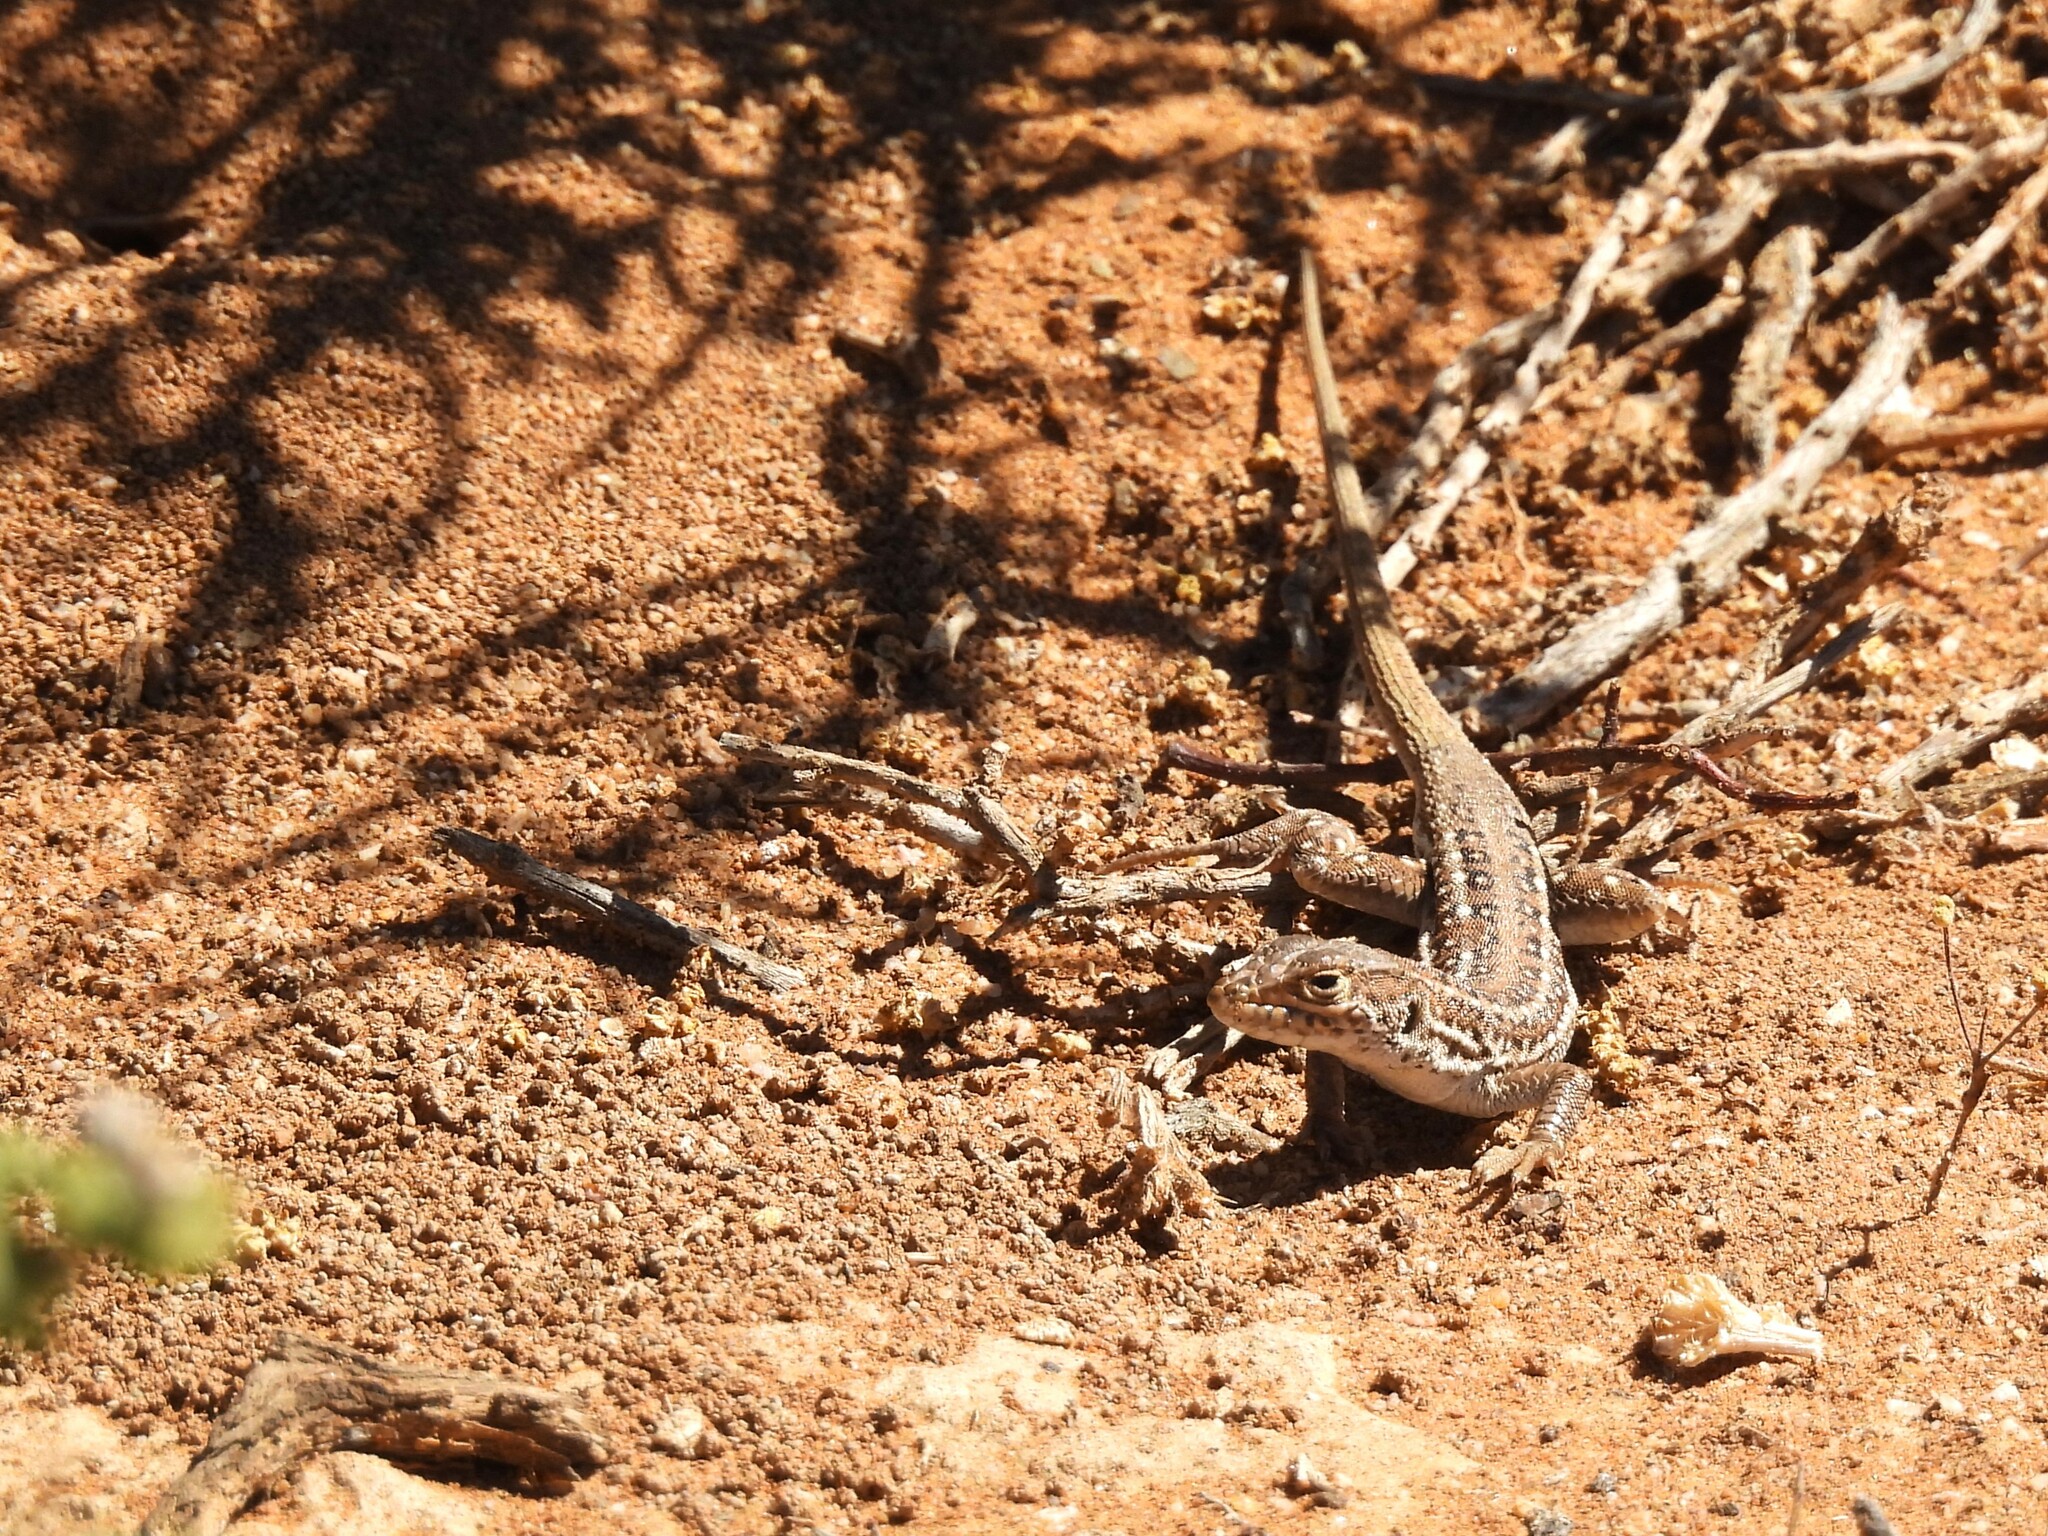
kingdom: Animalia
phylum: Chordata
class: Squamata
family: Lacertidae
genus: Meroles
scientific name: Meroles knoxii
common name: Knox's desert lizard
